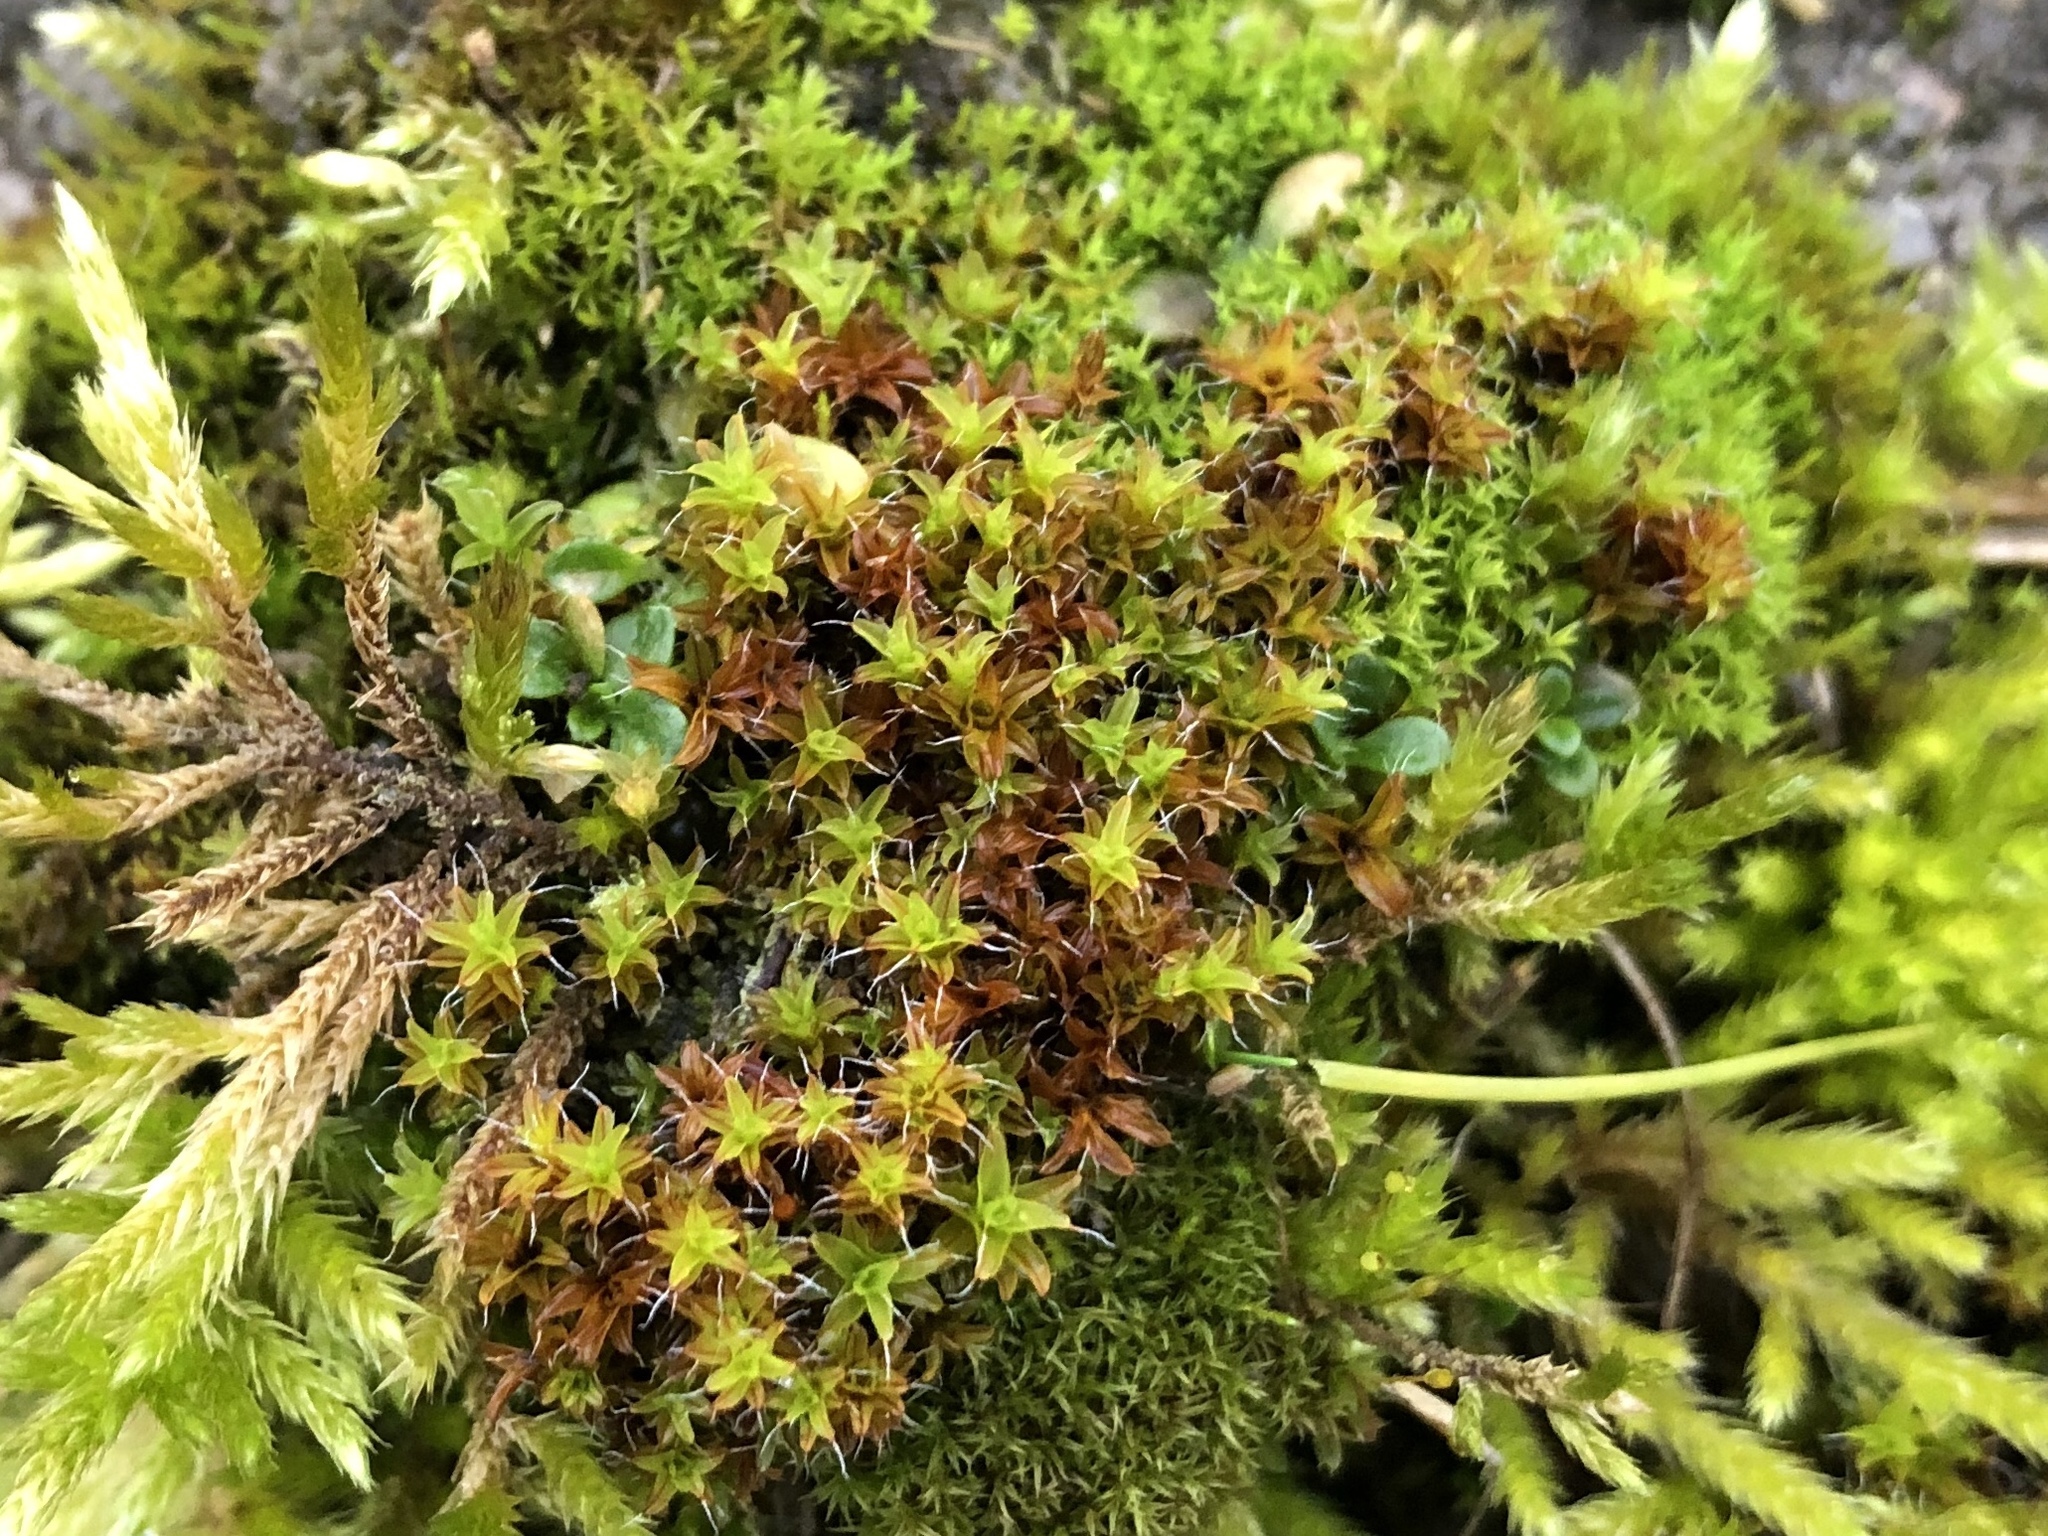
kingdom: Plantae
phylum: Bryophyta
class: Bryopsida
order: Pottiales
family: Pottiaceae
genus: Syntrichia
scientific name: Syntrichia ruralis
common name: Sidewalk screw moss
